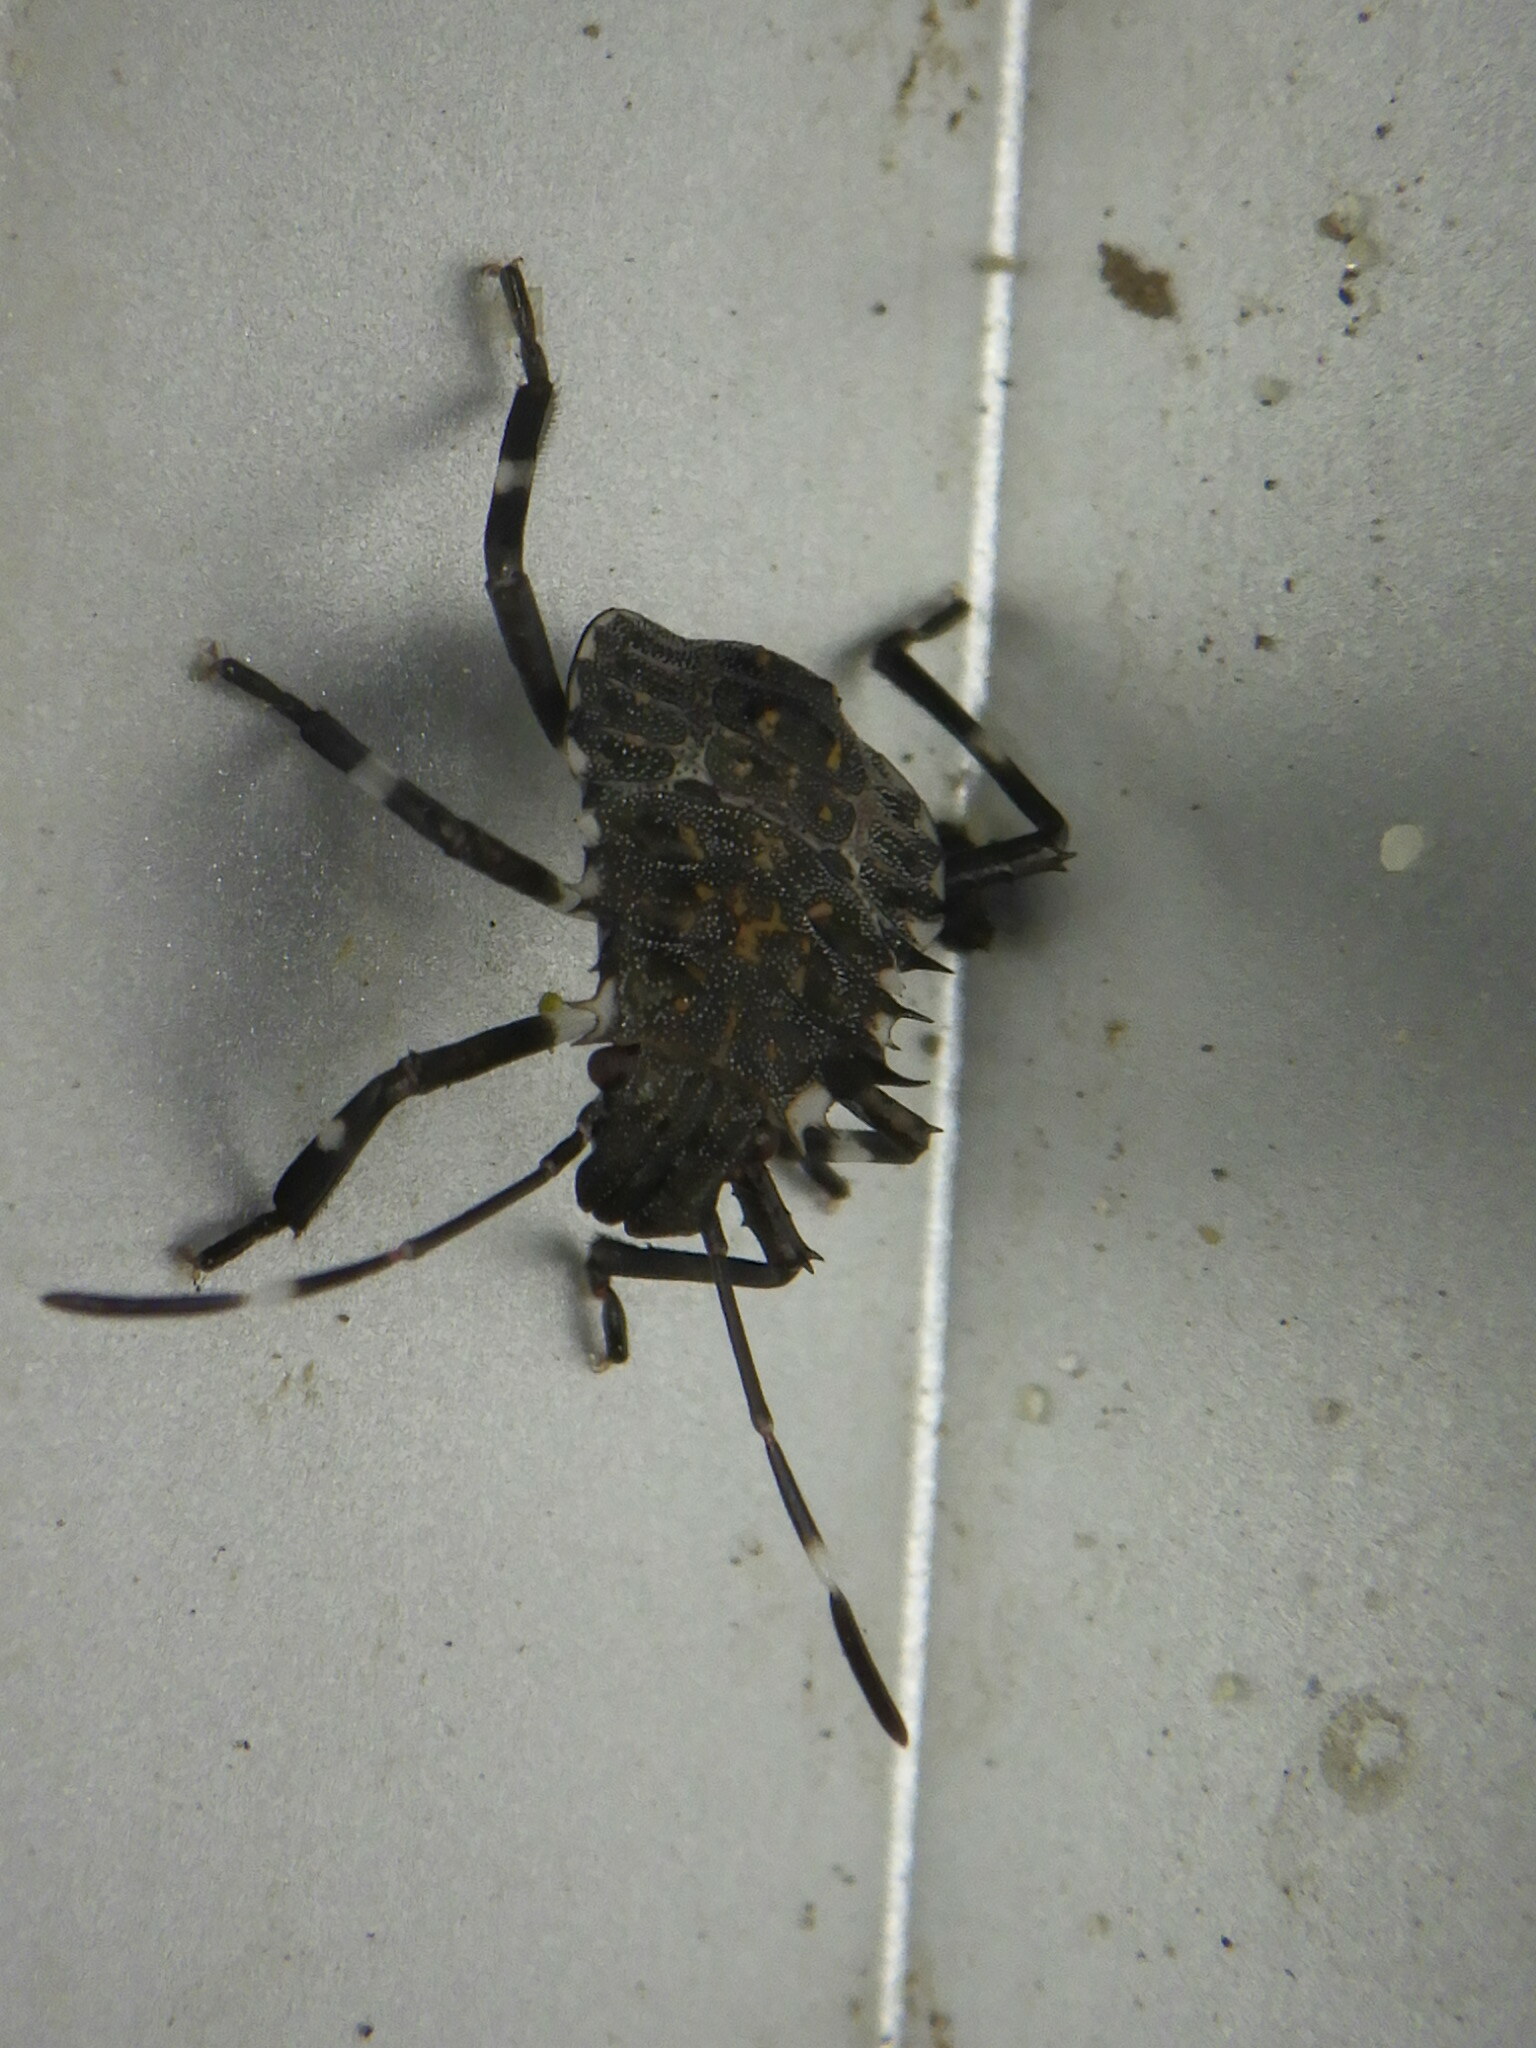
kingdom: Animalia
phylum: Arthropoda
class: Insecta
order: Hemiptera
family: Pentatomidae
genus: Halyomorpha
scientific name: Halyomorpha halys
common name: Brown marmorated stink bug
